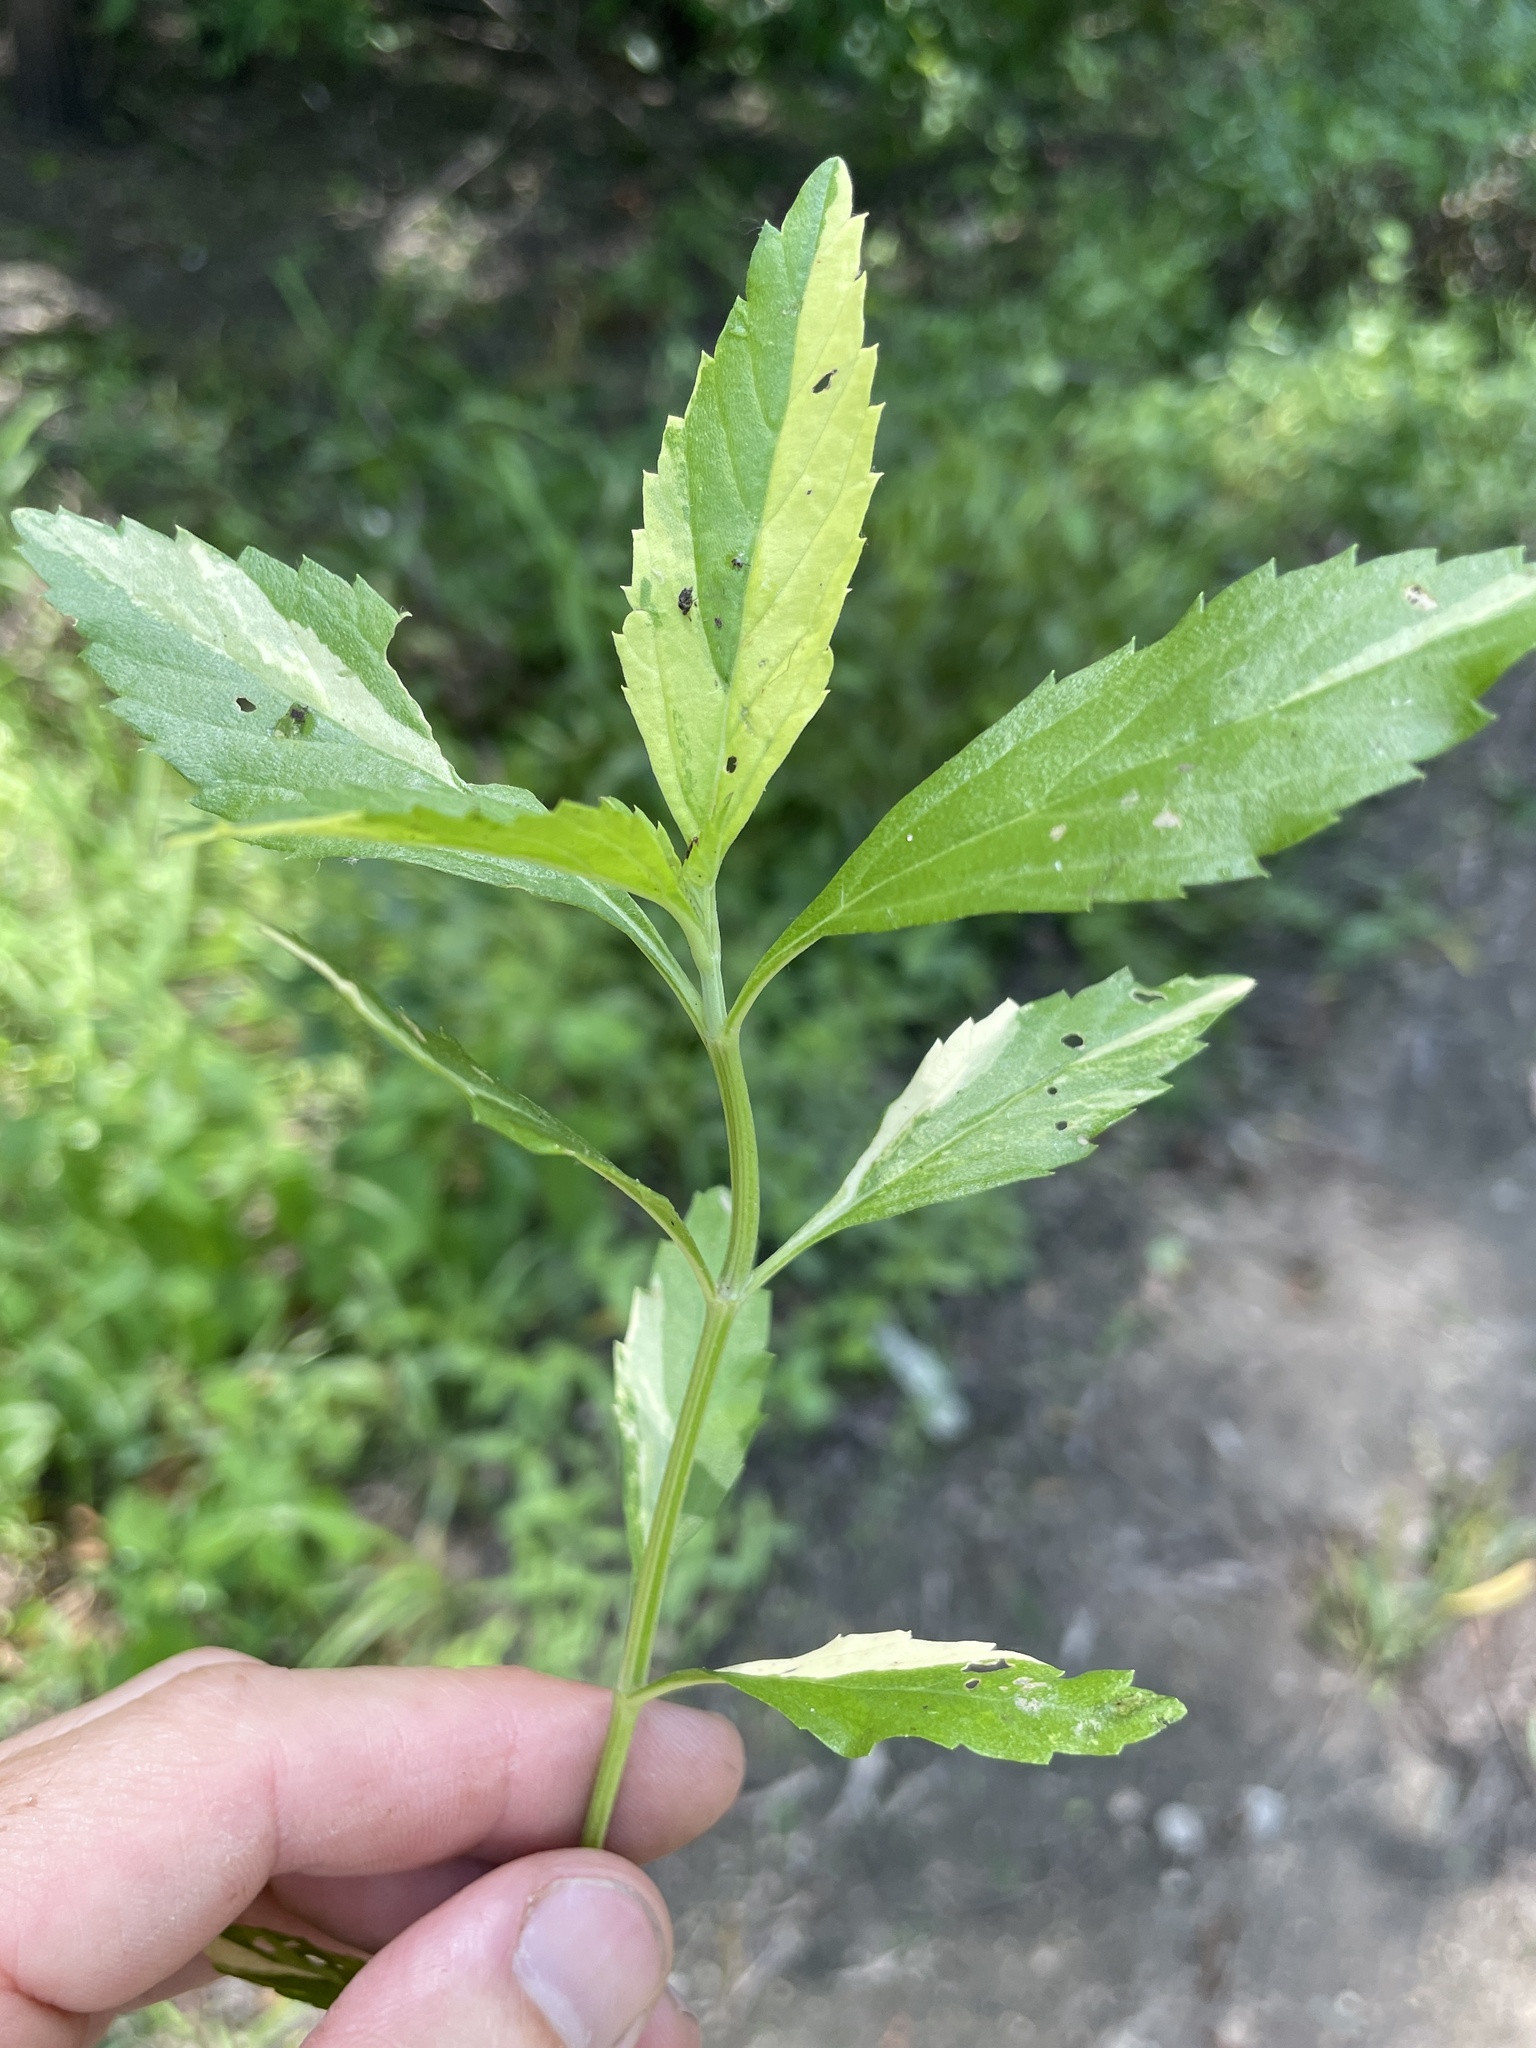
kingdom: Plantae
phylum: Tracheophyta
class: Magnoliopsida
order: Lamiales
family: Verbenaceae
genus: Phyla
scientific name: Phyla lanceolata
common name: Northern fogfruit
